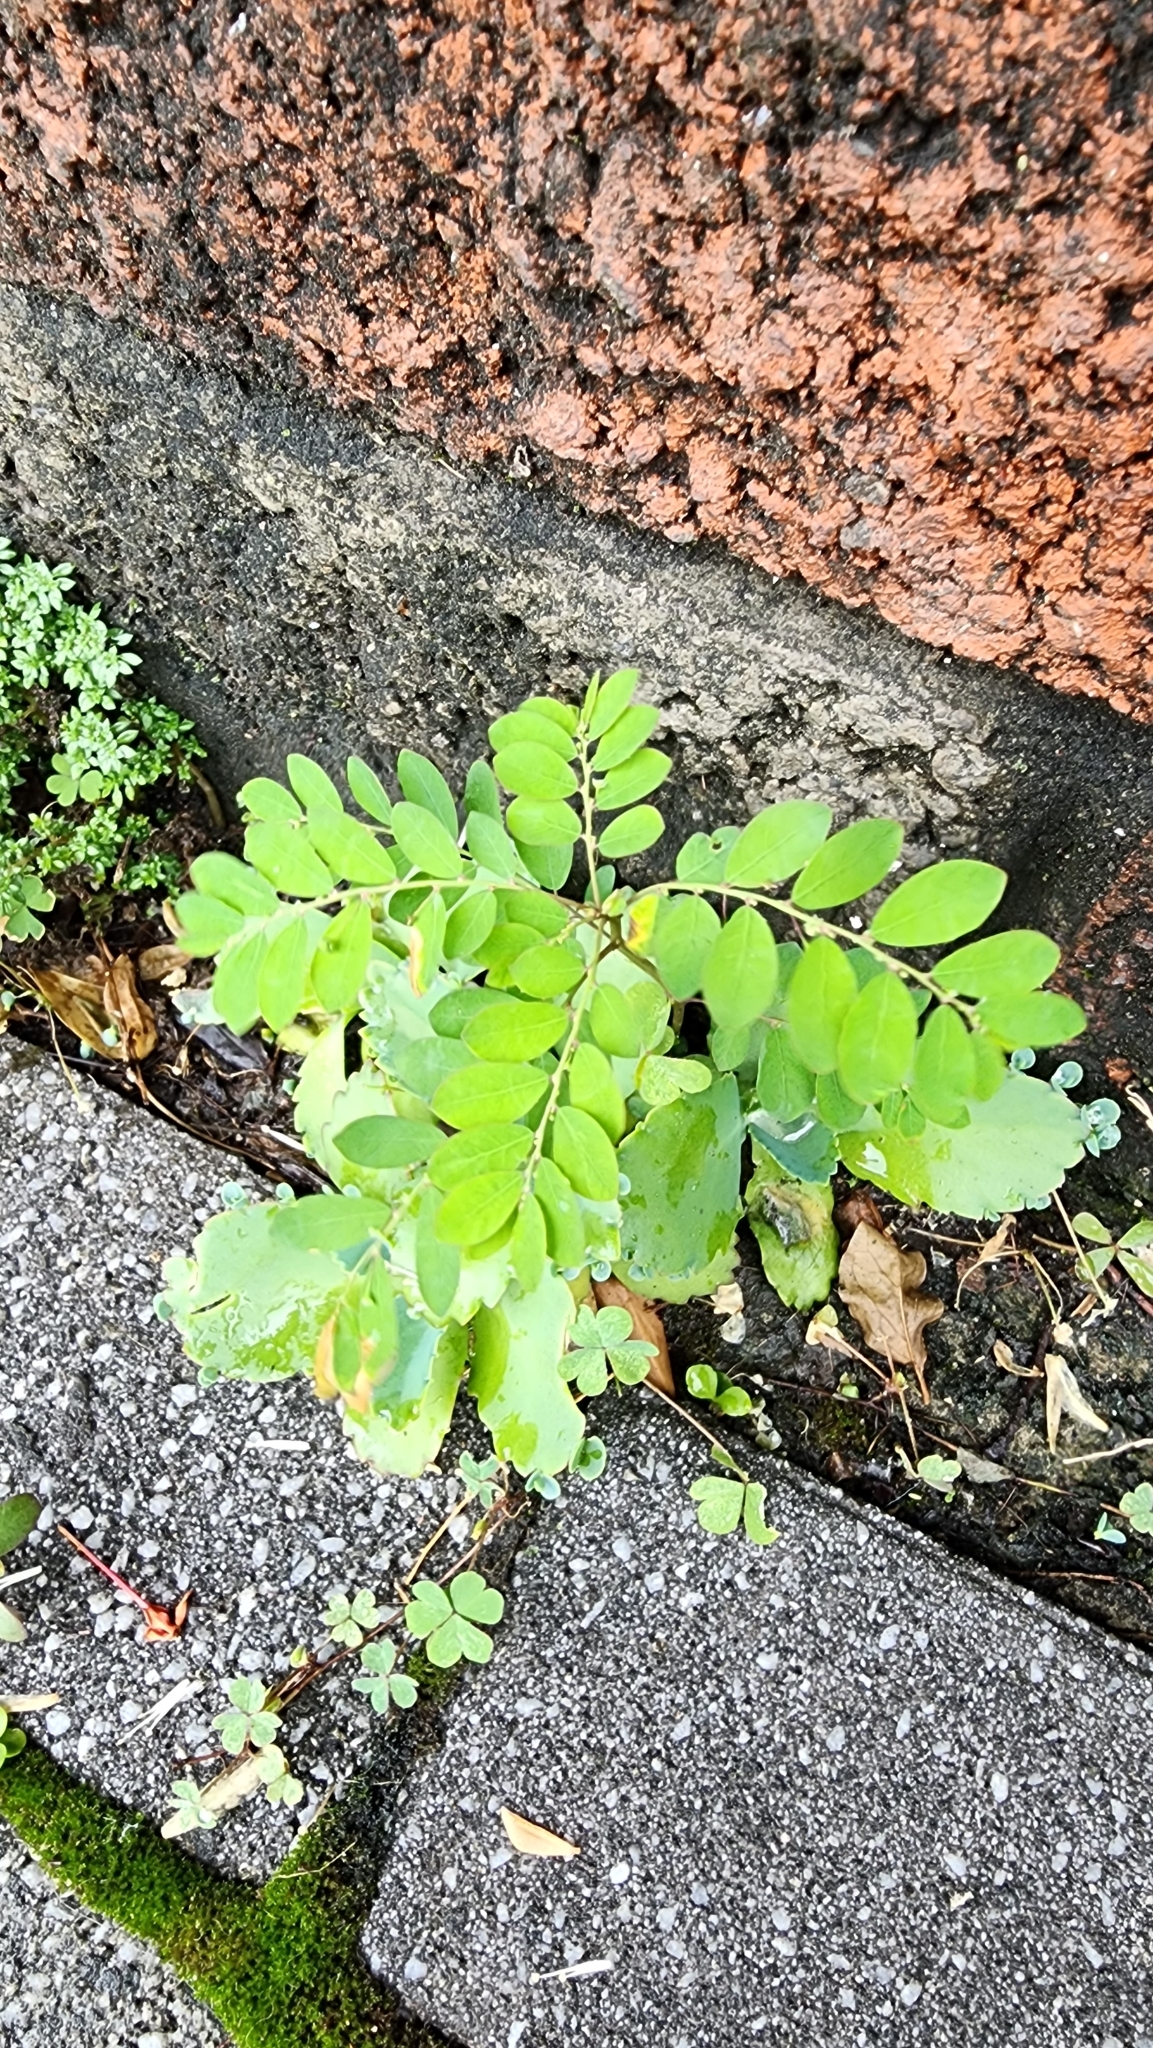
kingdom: Plantae
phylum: Tracheophyta
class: Magnoliopsida
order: Malpighiales
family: Phyllanthaceae
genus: Phyllanthus
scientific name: Phyllanthus tenellus
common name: Mascarene island leaf-flower
